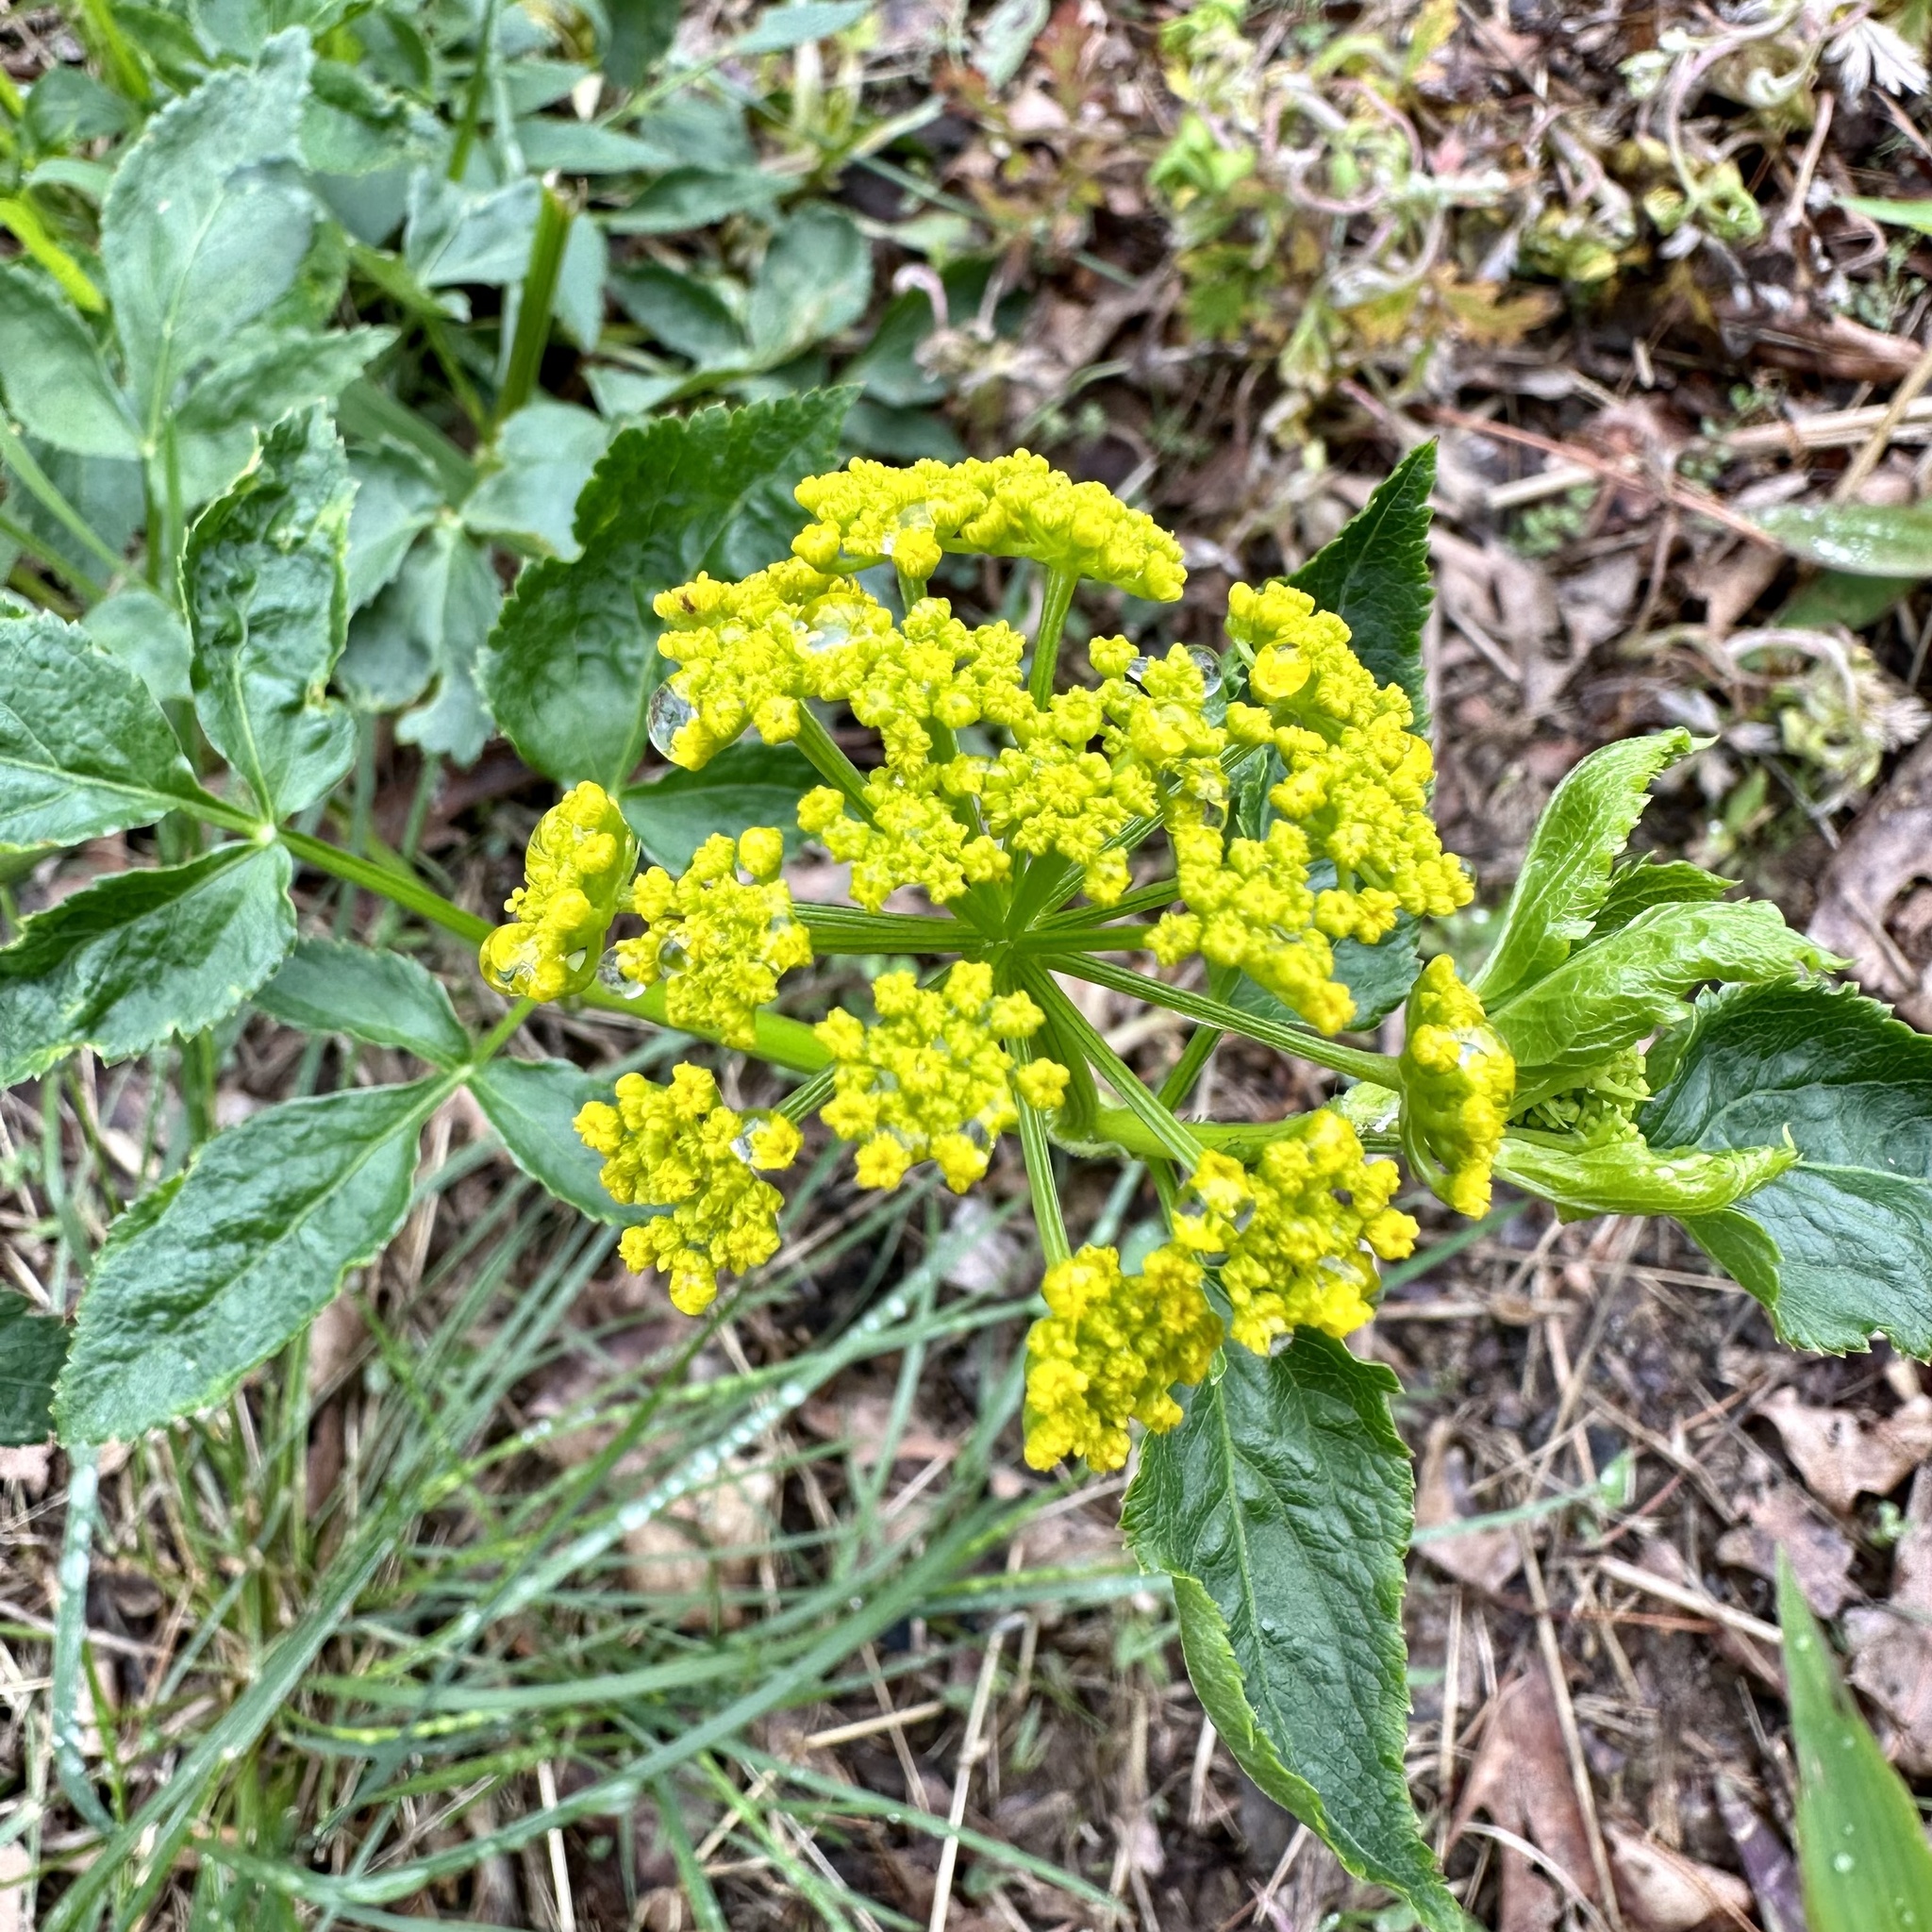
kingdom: Plantae
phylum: Tracheophyta
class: Magnoliopsida
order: Apiales
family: Apiaceae
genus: Zizia
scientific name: Zizia aurea
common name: Golden alexanders
